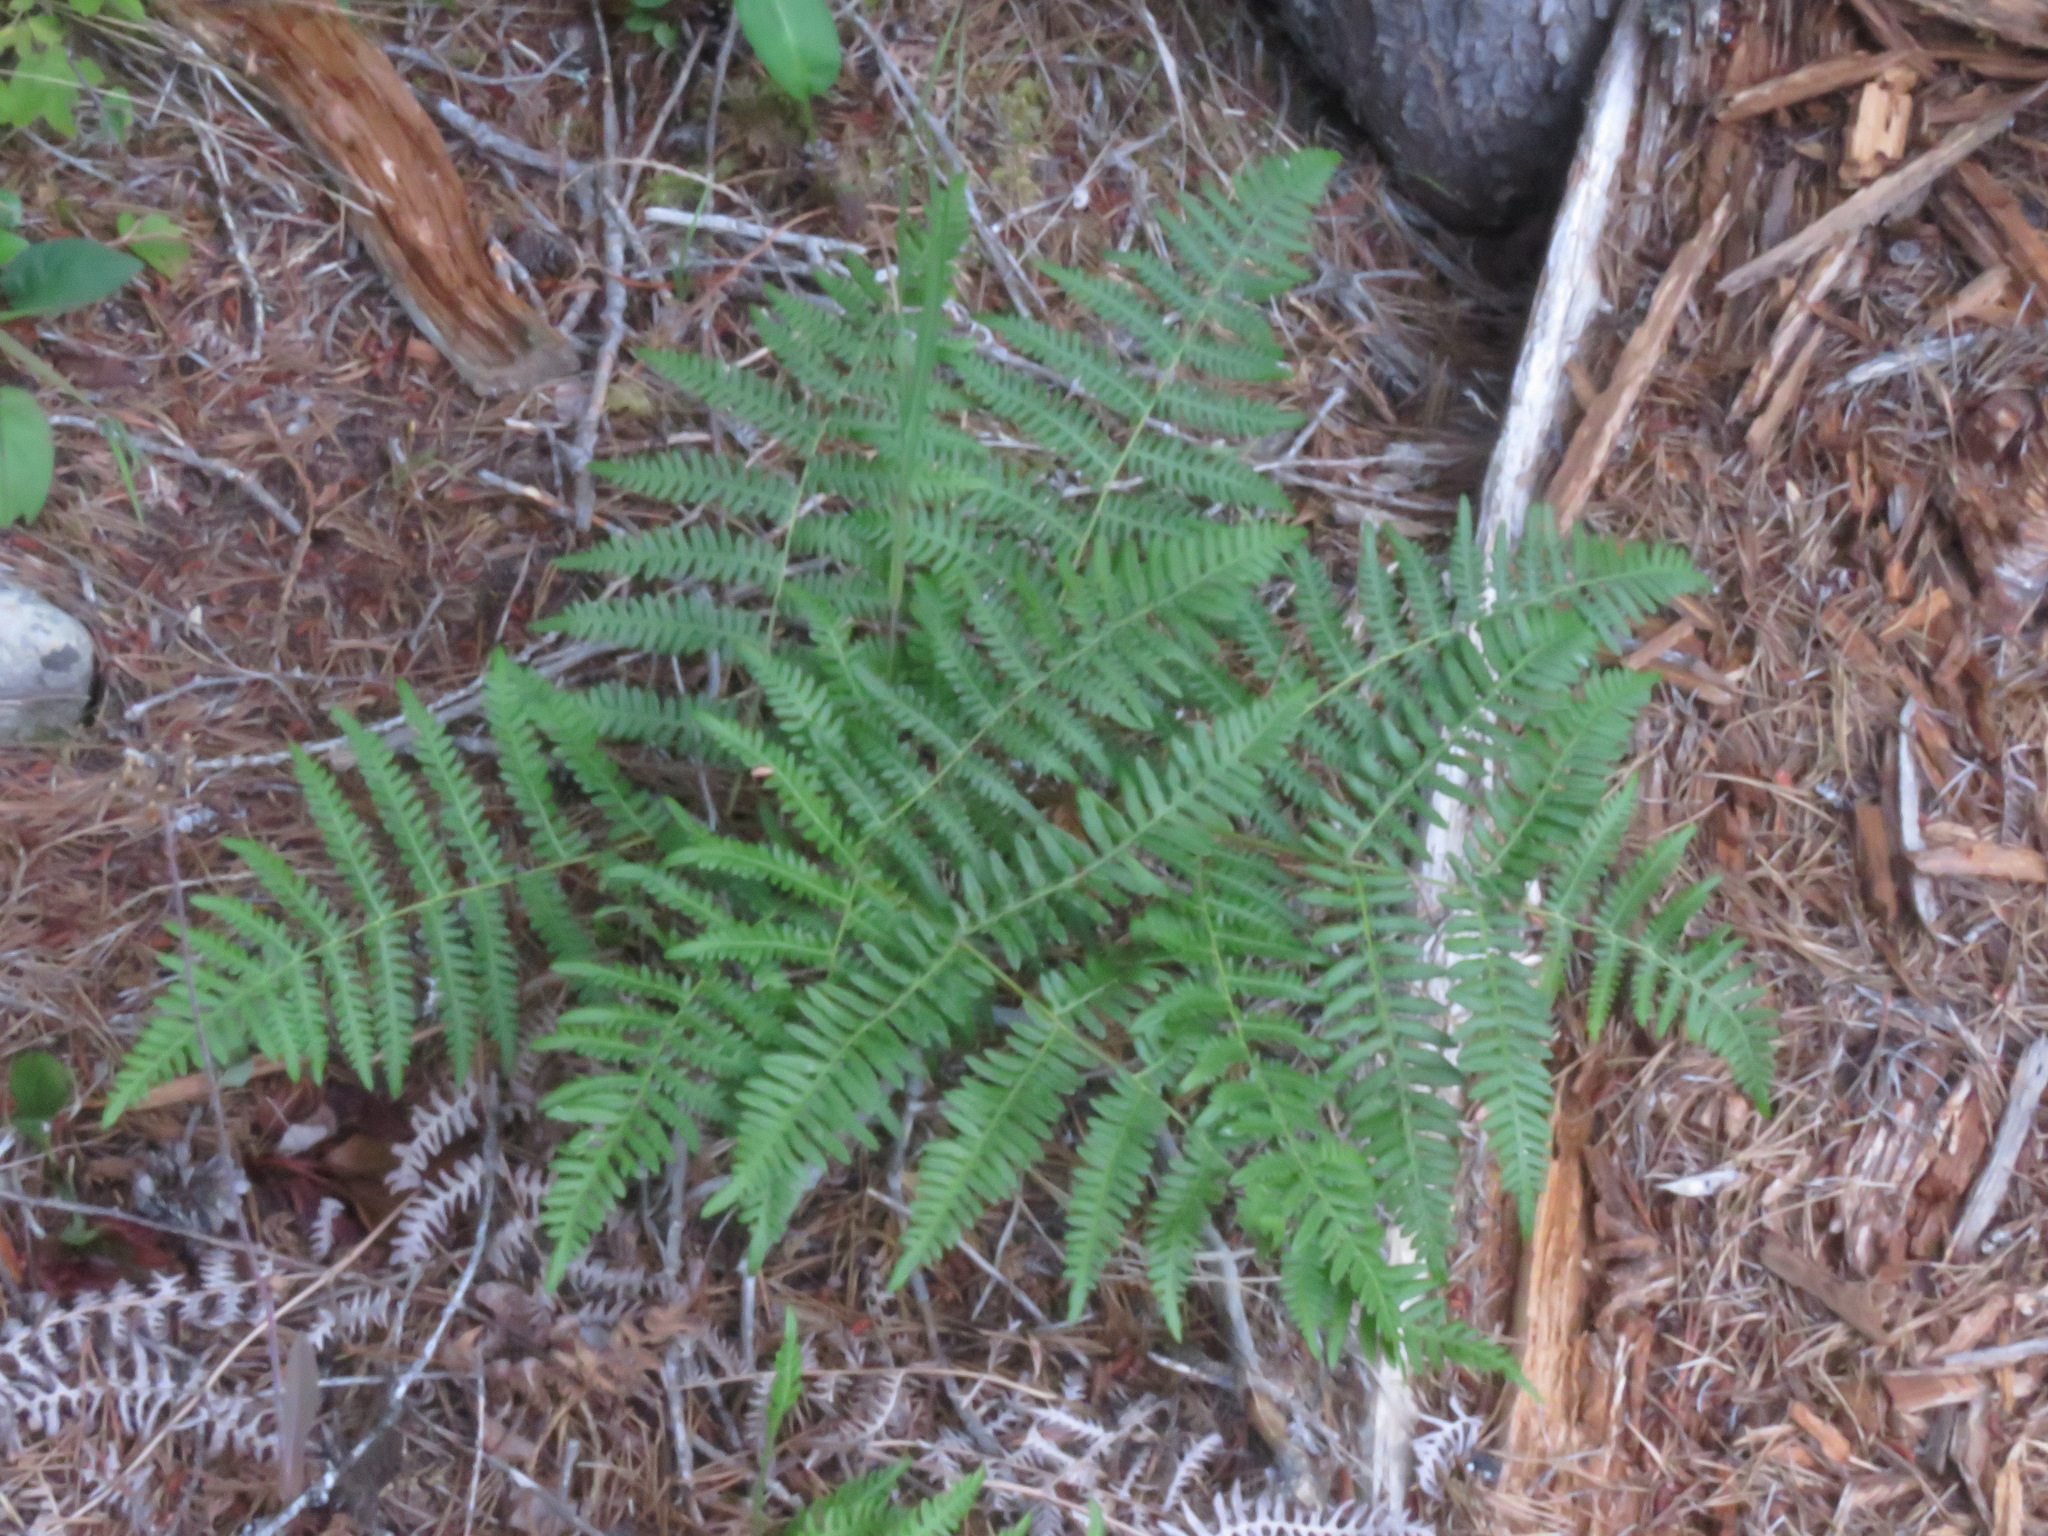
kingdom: Plantae
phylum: Tracheophyta
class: Polypodiopsida
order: Polypodiales
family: Dennstaedtiaceae
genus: Pteridium
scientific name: Pteridium aquilinum
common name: Bracken
